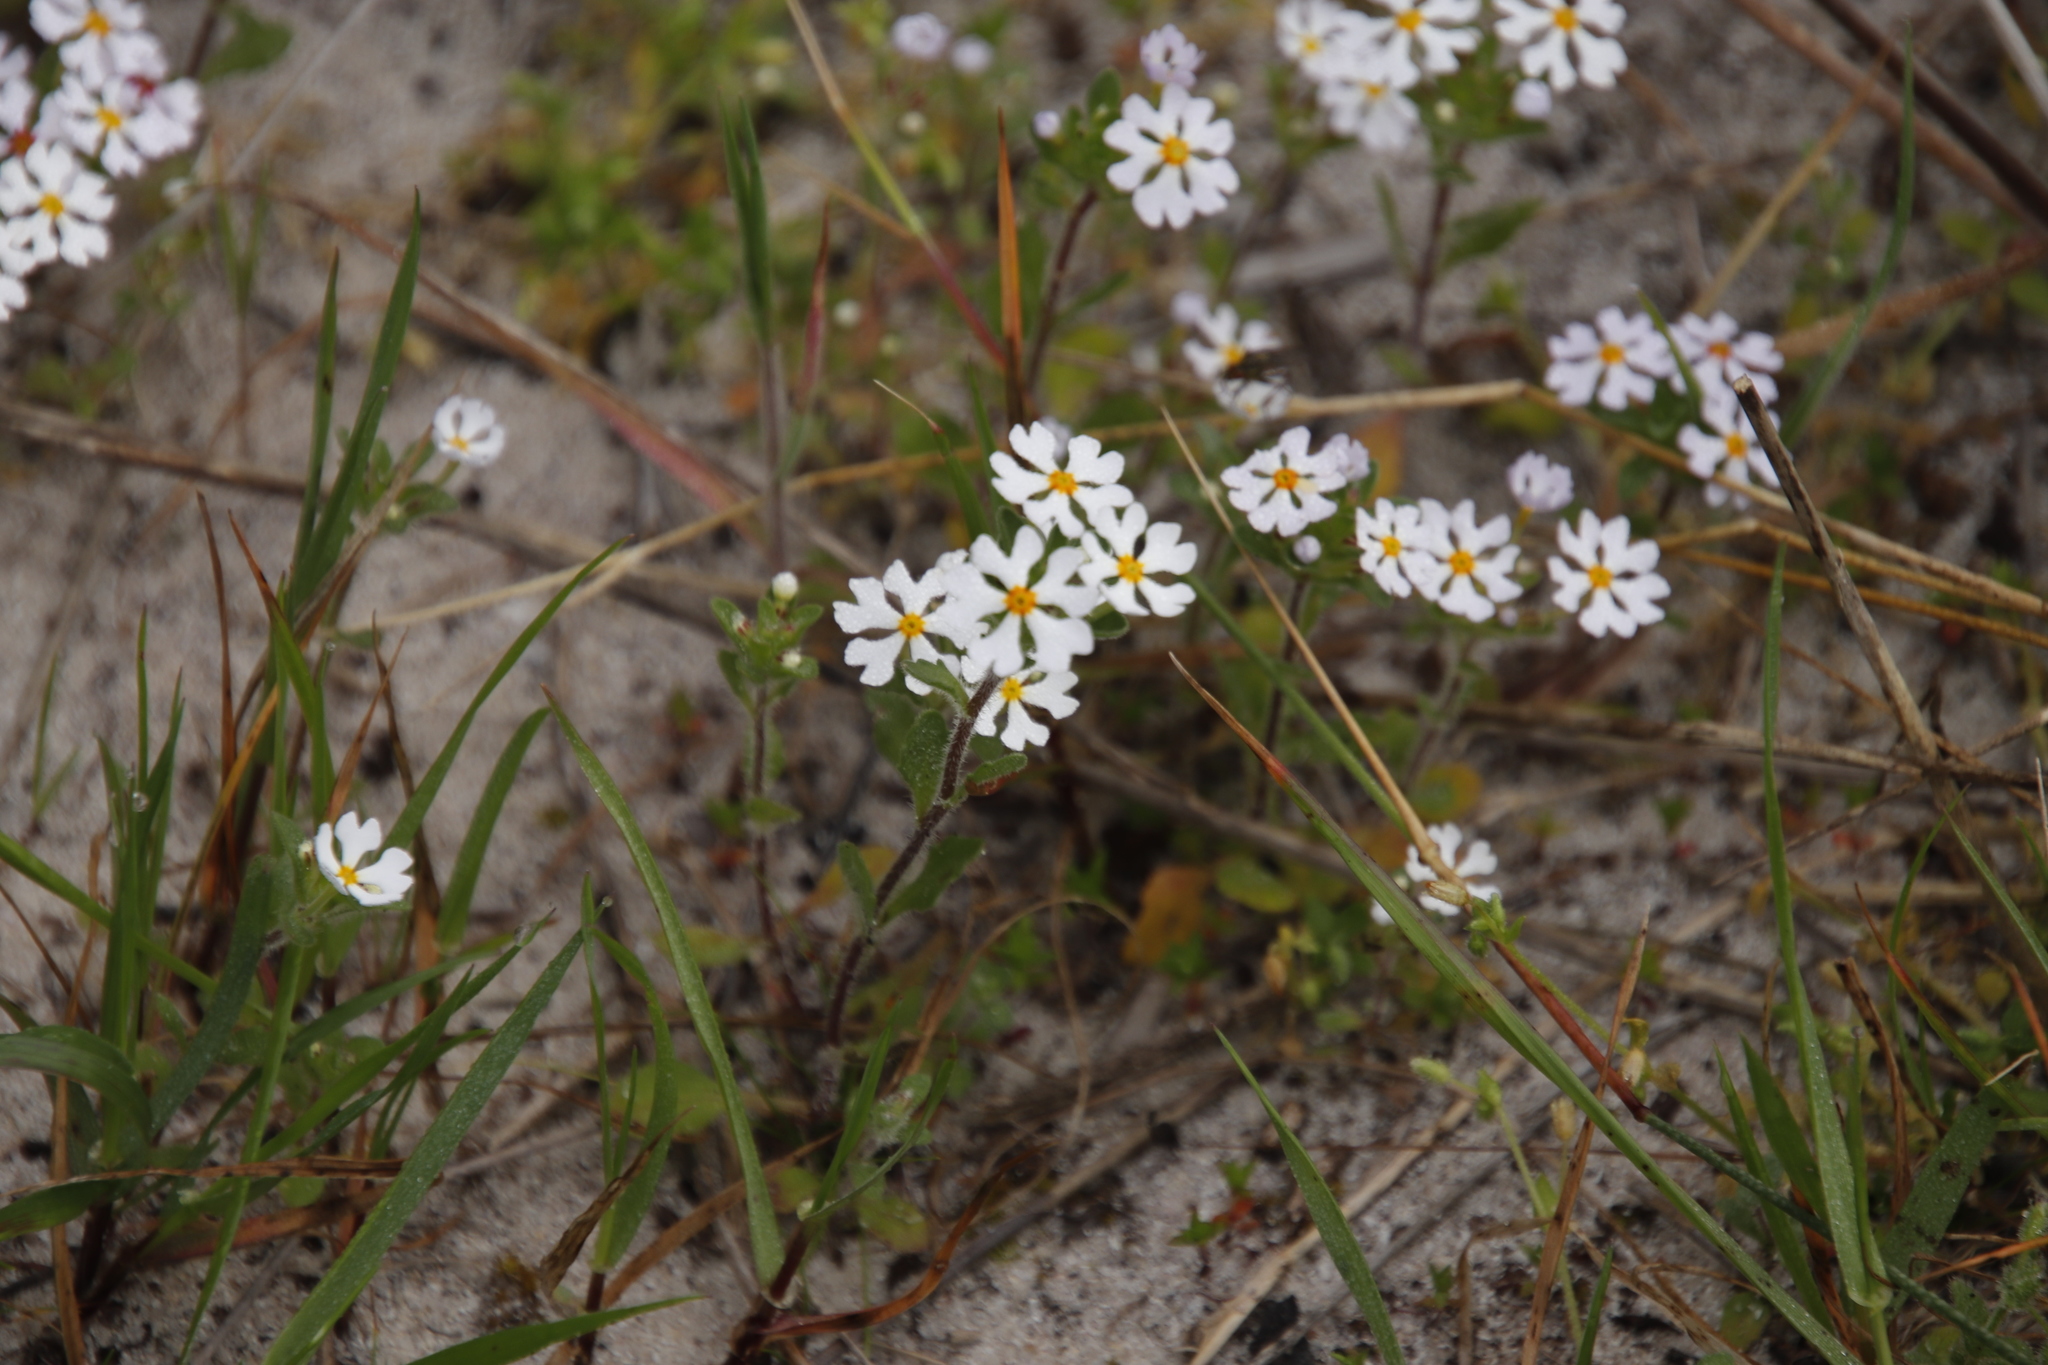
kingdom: Plantae
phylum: Tracheophyta
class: Magnoliopsida
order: Lamiales
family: Scrophulariaceae
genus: Zaluzianskya
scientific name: Zaluzianskya villosa
